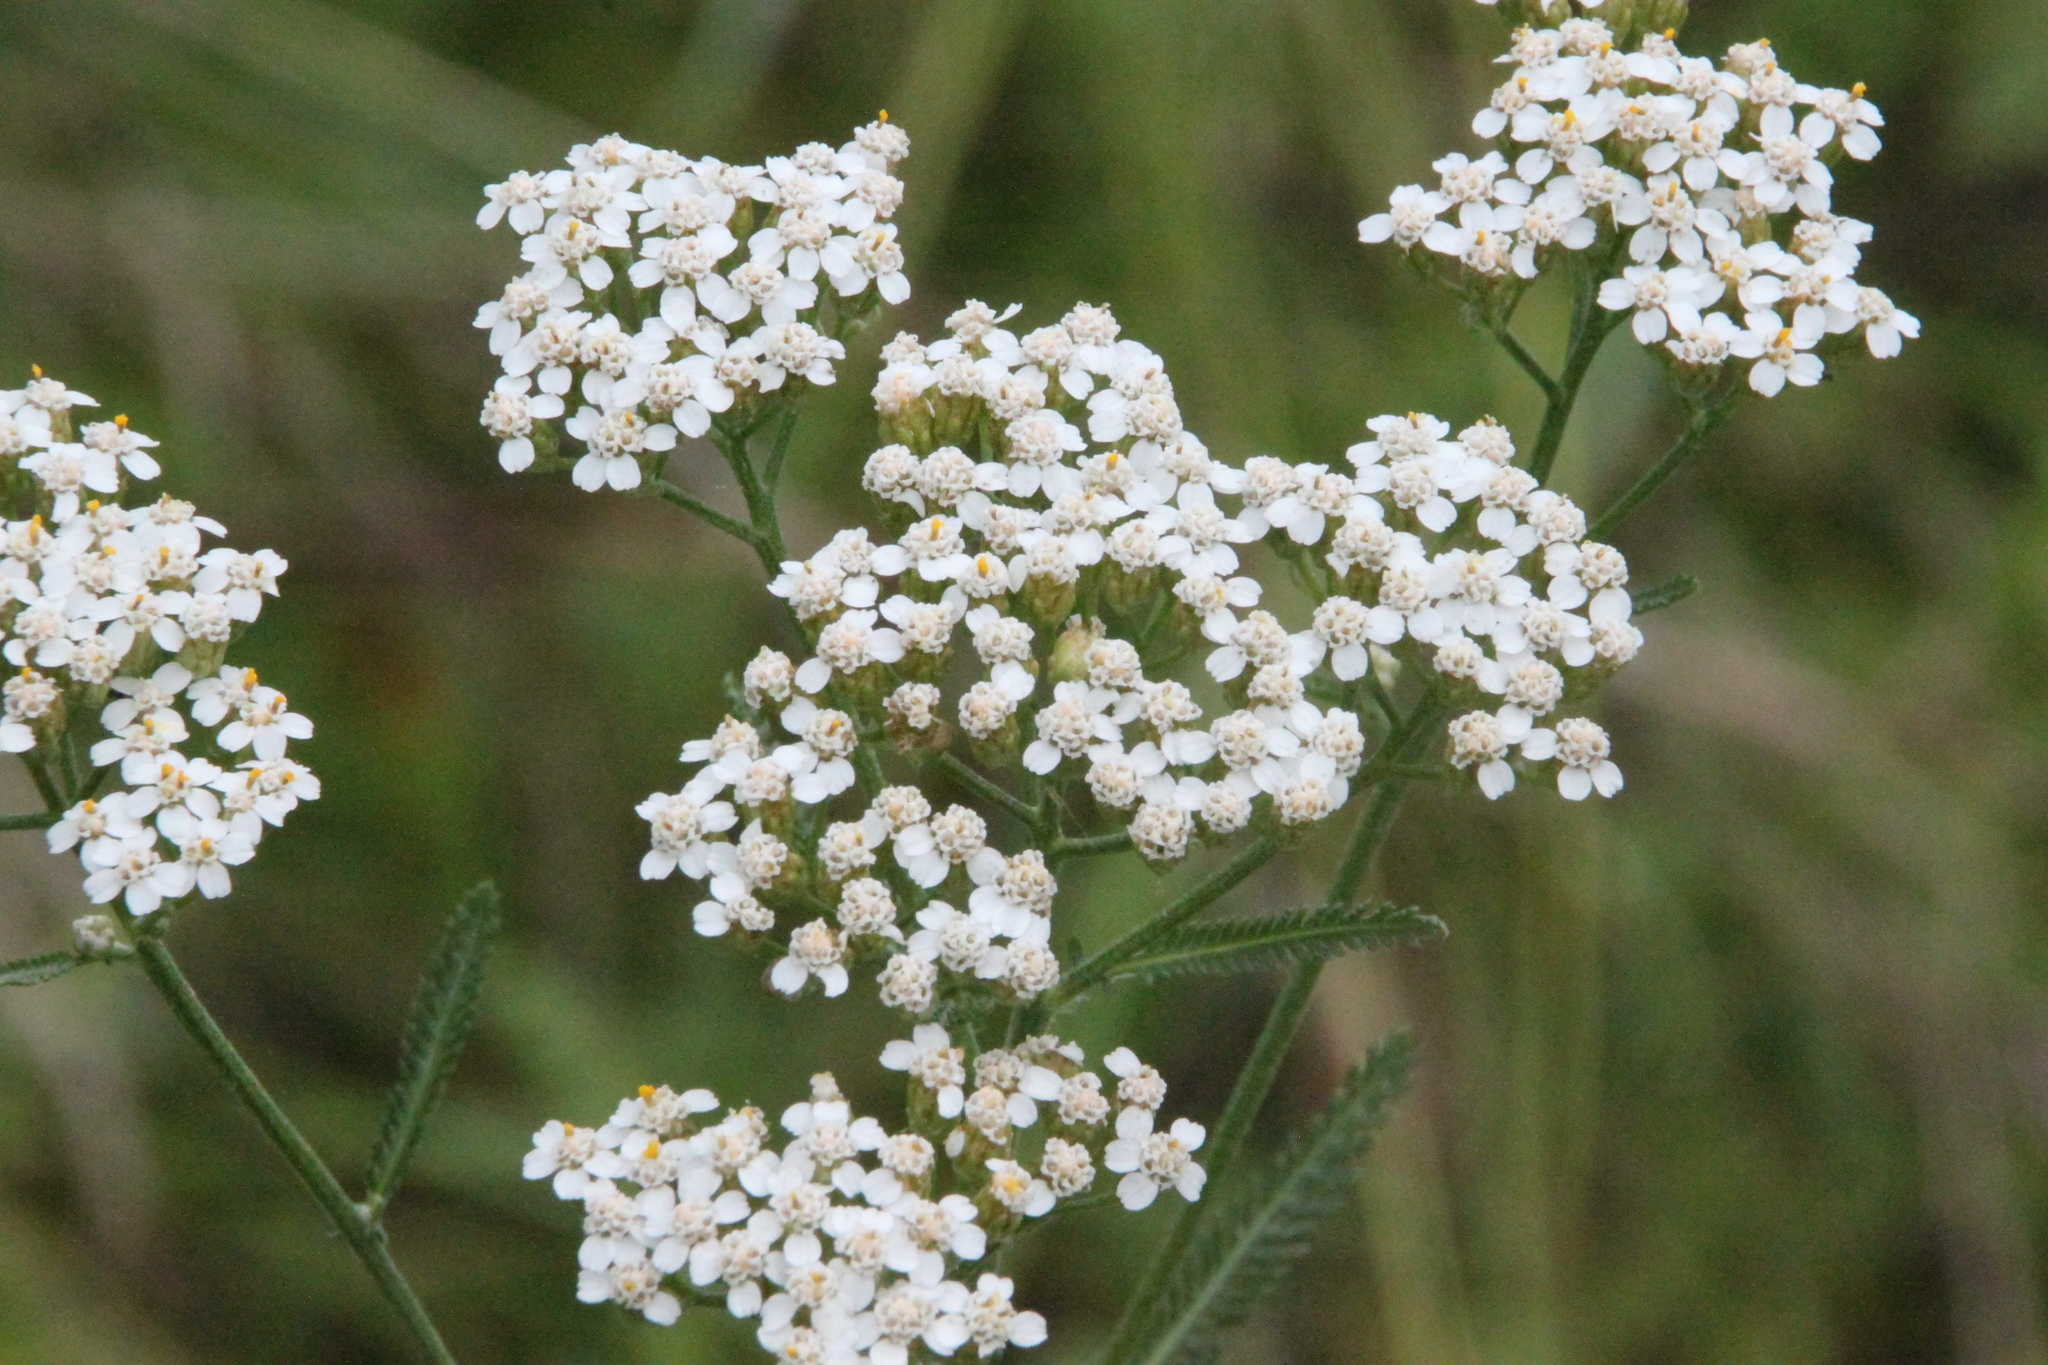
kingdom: Plantae
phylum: Tracheophyta
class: Magnoliopsida
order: Asterales
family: Asteraceae
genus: Achillea
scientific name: Achillea millefolium
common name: Yarrow
